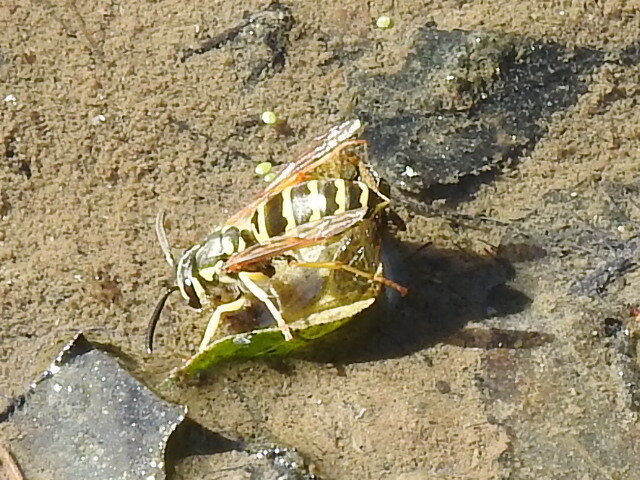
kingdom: Animalia
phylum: Arthropoda
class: Insecta
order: Hymenoptera
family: Vespidae
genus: Vespula
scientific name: Vespula maculifrons
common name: Eastern yellowjacket
